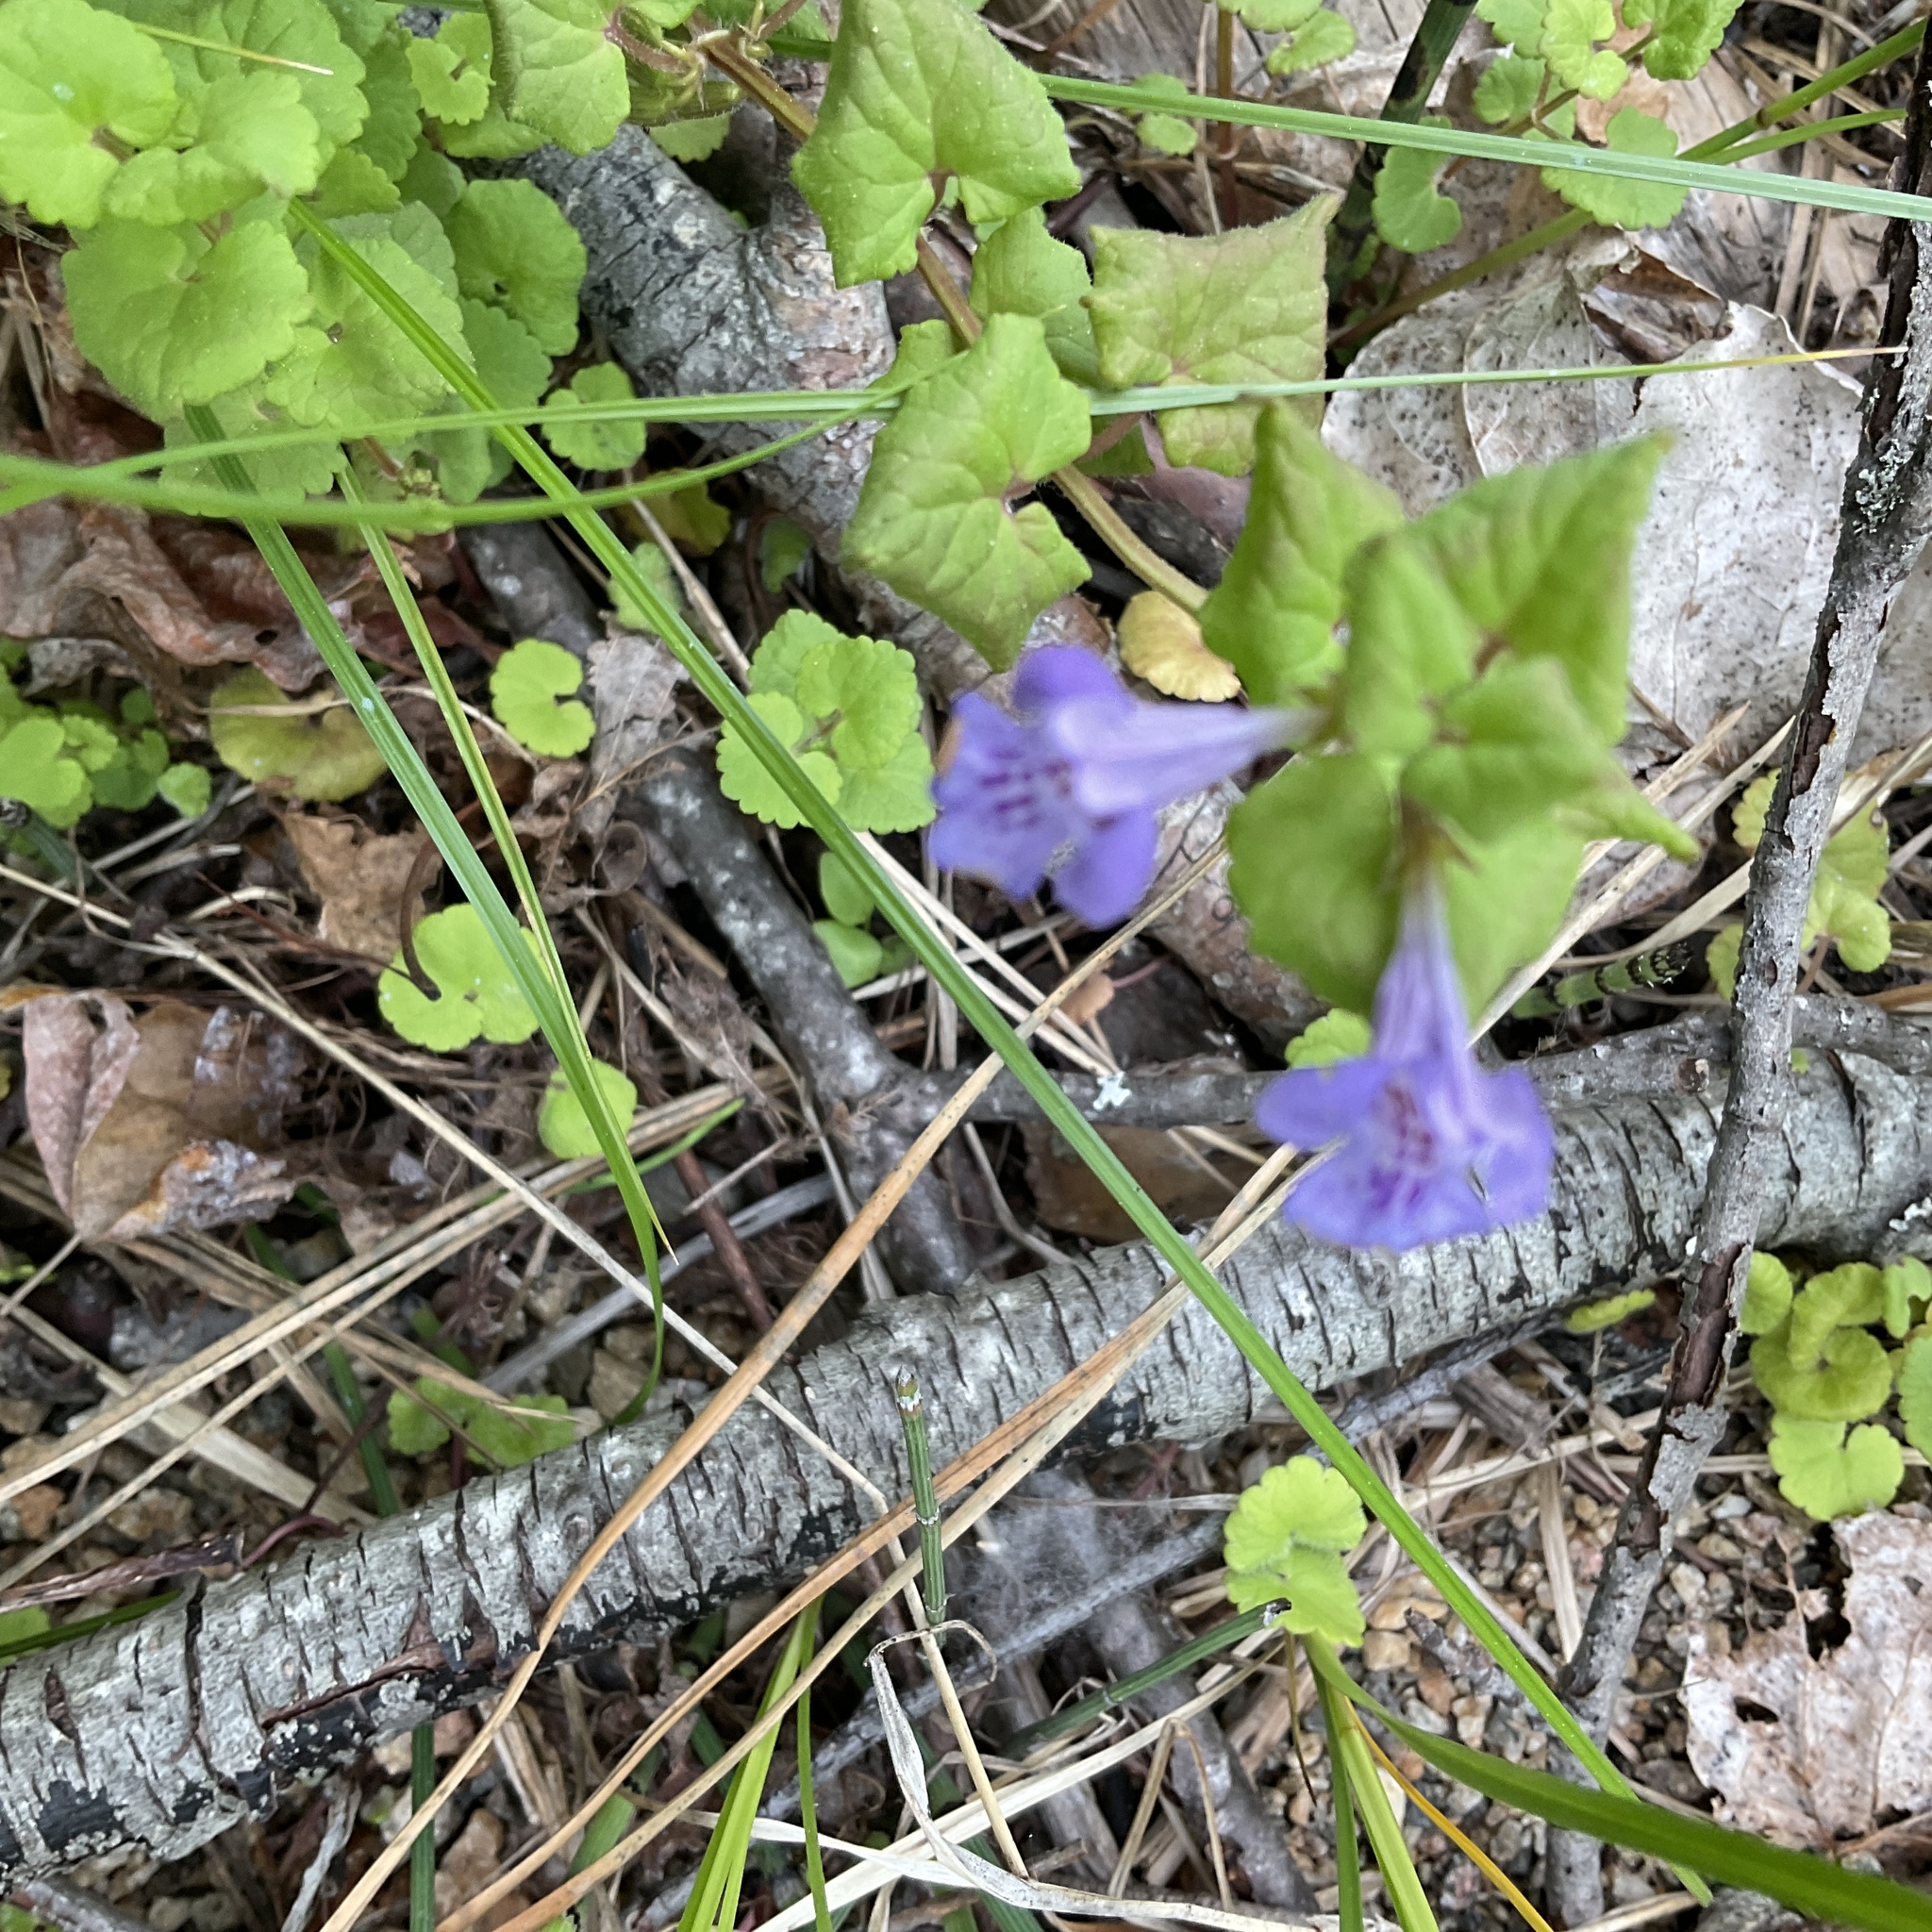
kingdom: Plantae
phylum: Tracheophyta
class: Magnoliopsida
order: Lamiales
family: Lamiaceae
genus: Glechoma
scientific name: Glechoma hederacea
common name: Ground ivy
